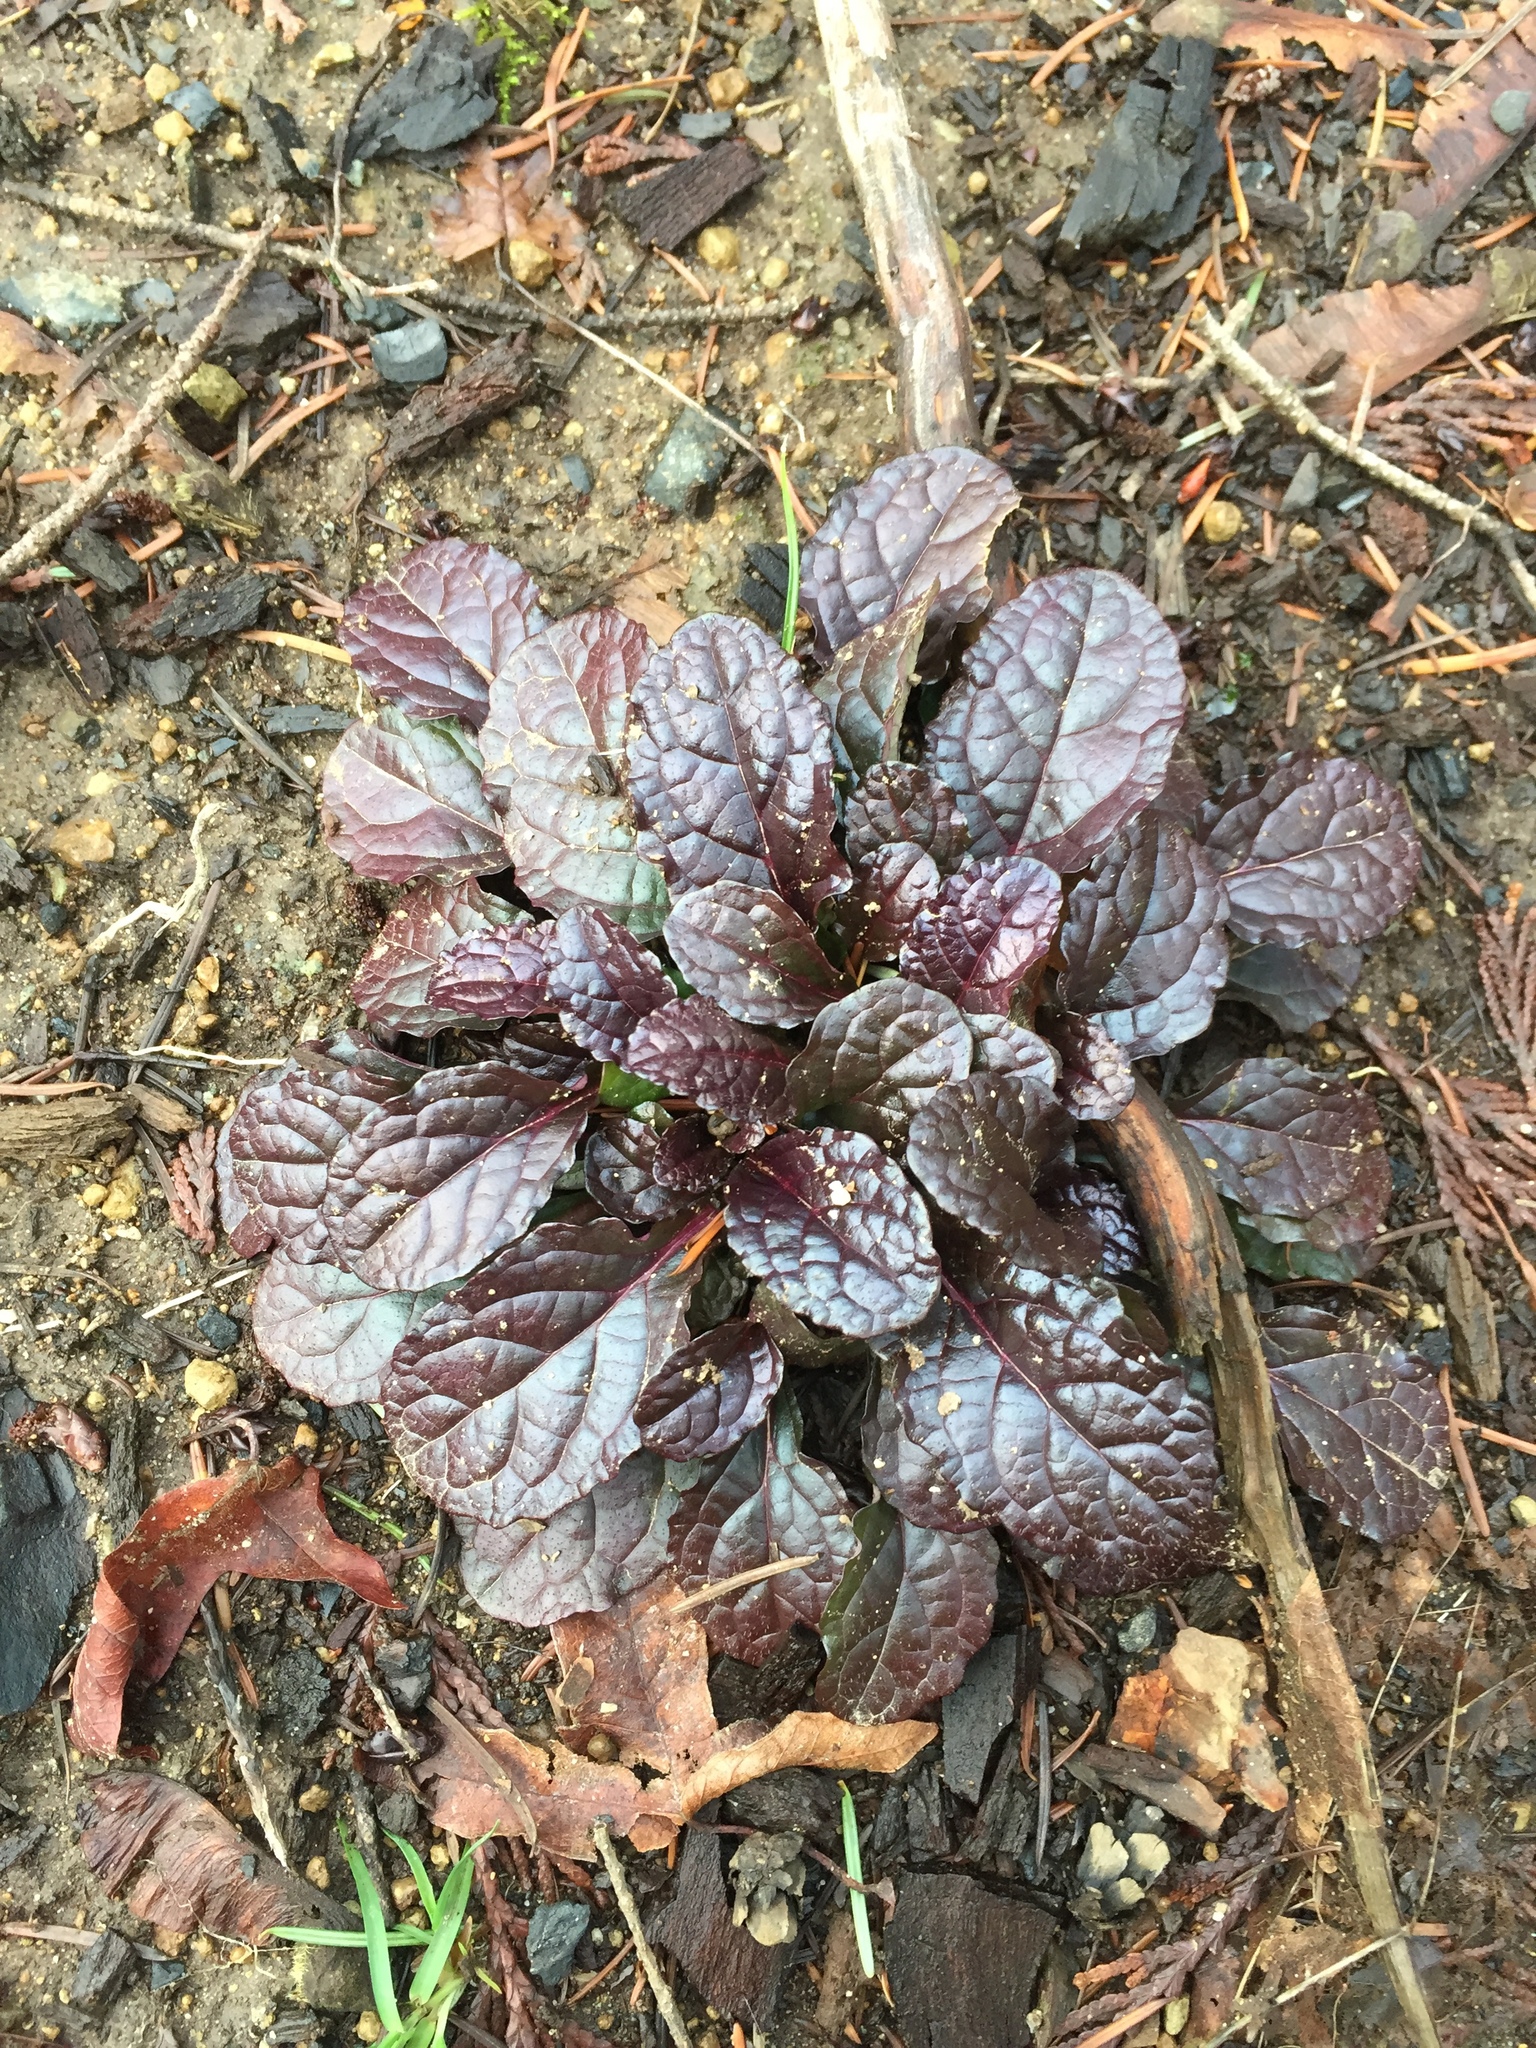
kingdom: Plantae
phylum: Tracheophyta
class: Magnoliopsida
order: Lamiales
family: Lamiaceae
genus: Ajuga
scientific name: Ajuga reptans
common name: Bugle
